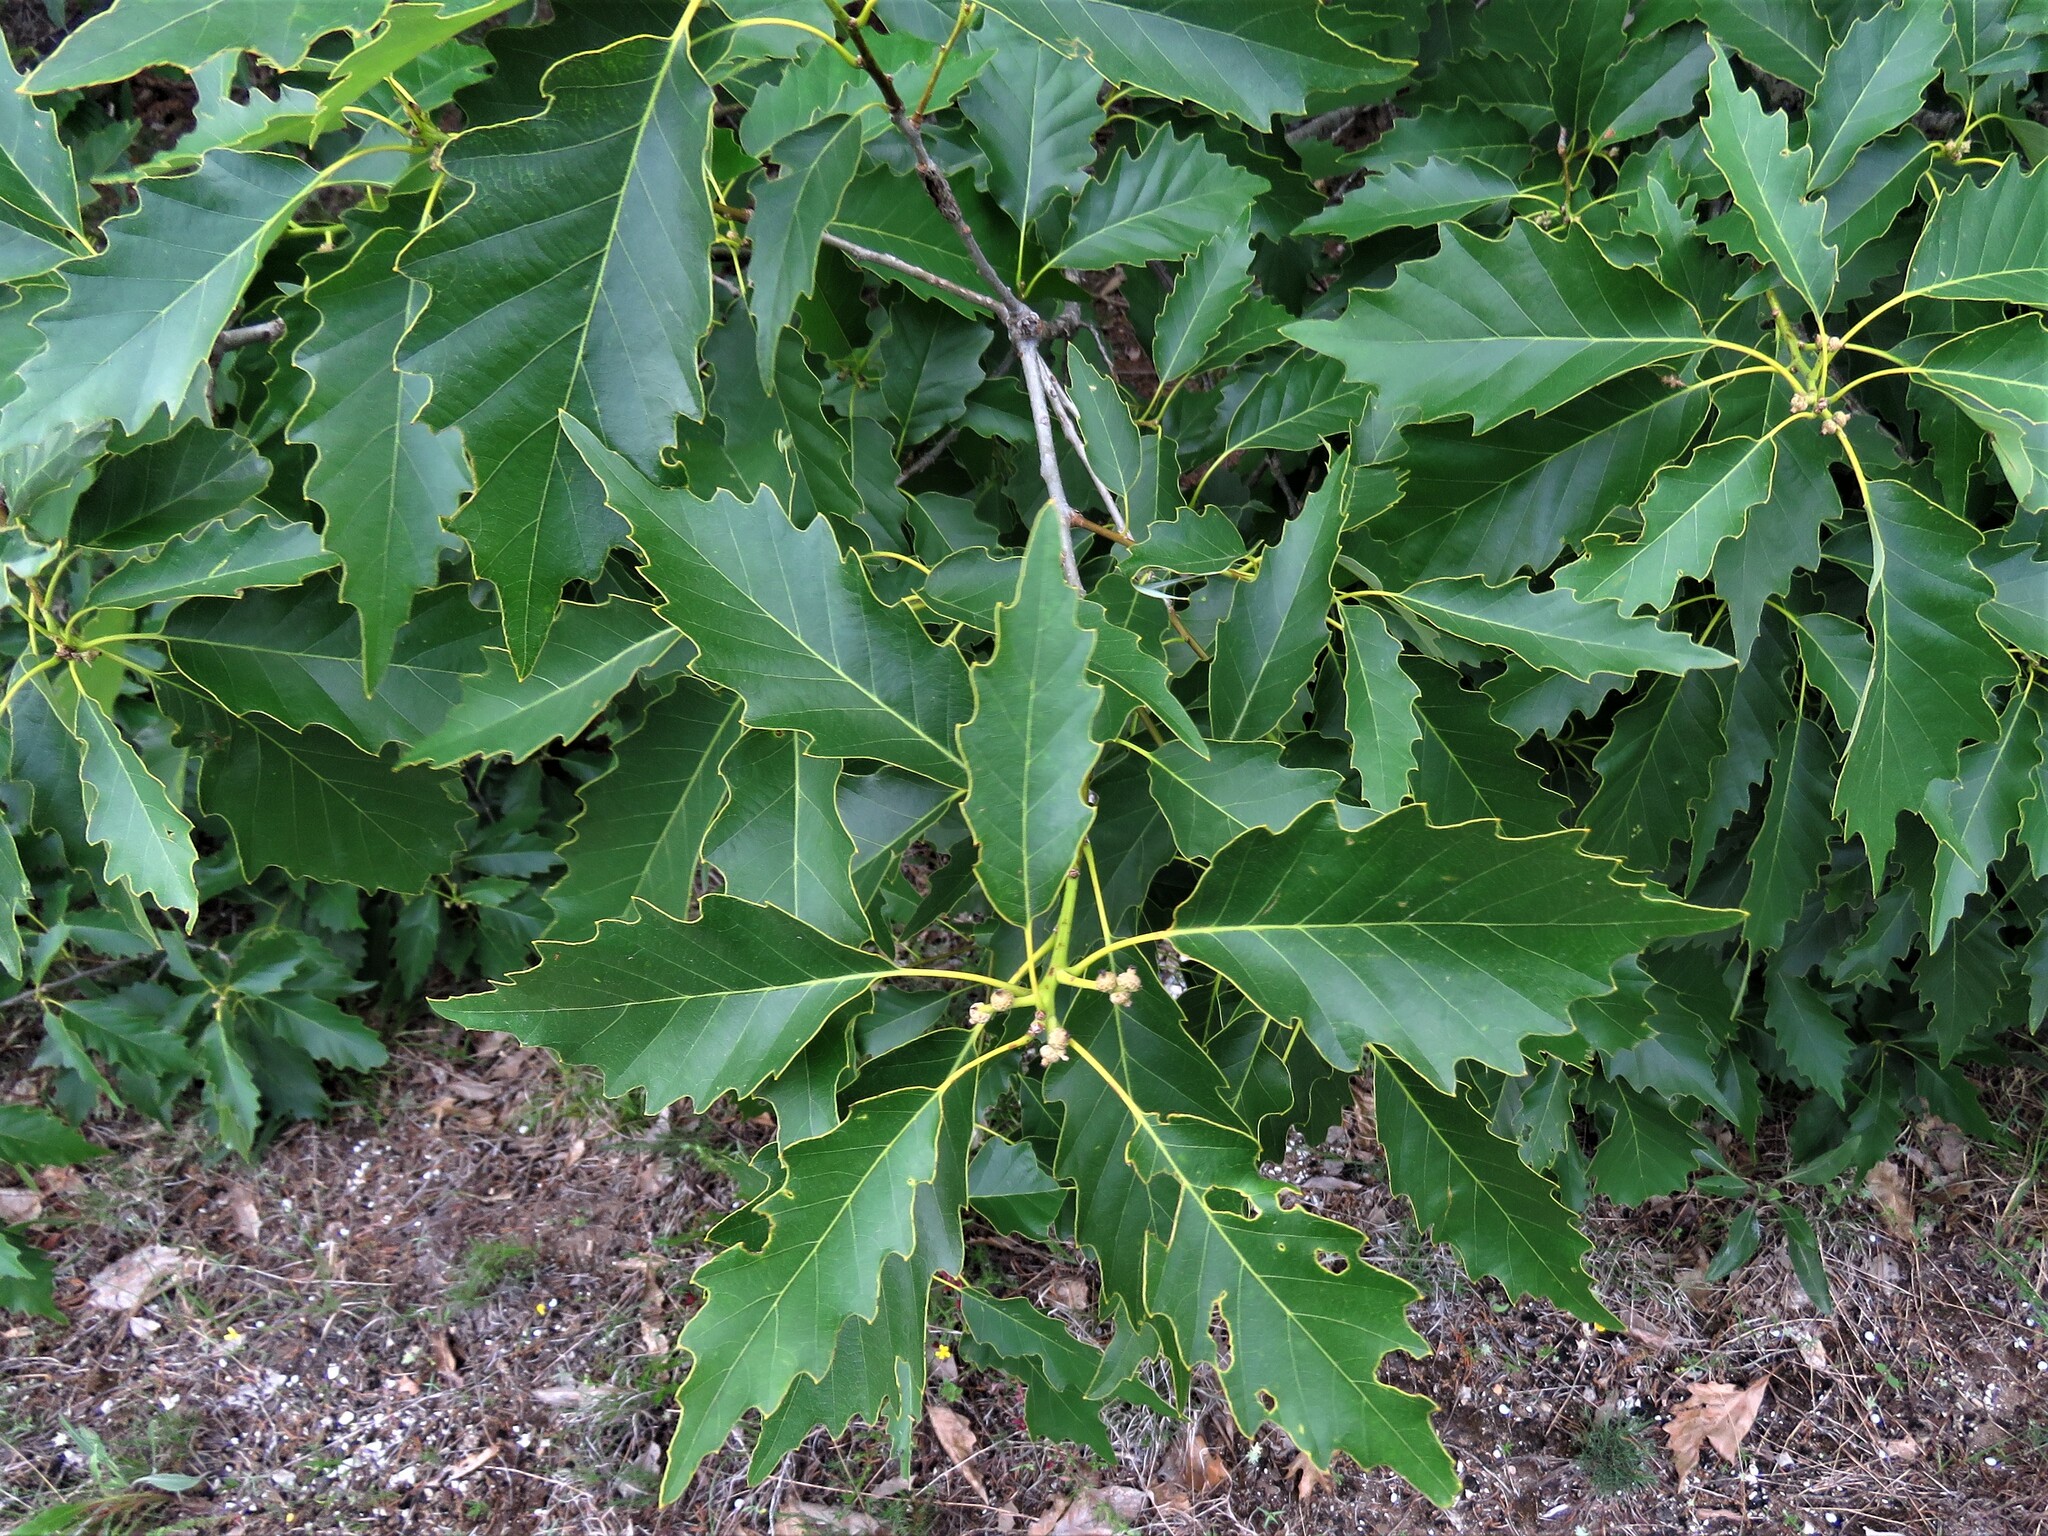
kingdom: Plantae
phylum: Tracheophyta
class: Magnoliopsida
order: Fagales
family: Fagaceae
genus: Quercus
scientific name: Quercus muehlenbergii
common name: Chinkapin oak
